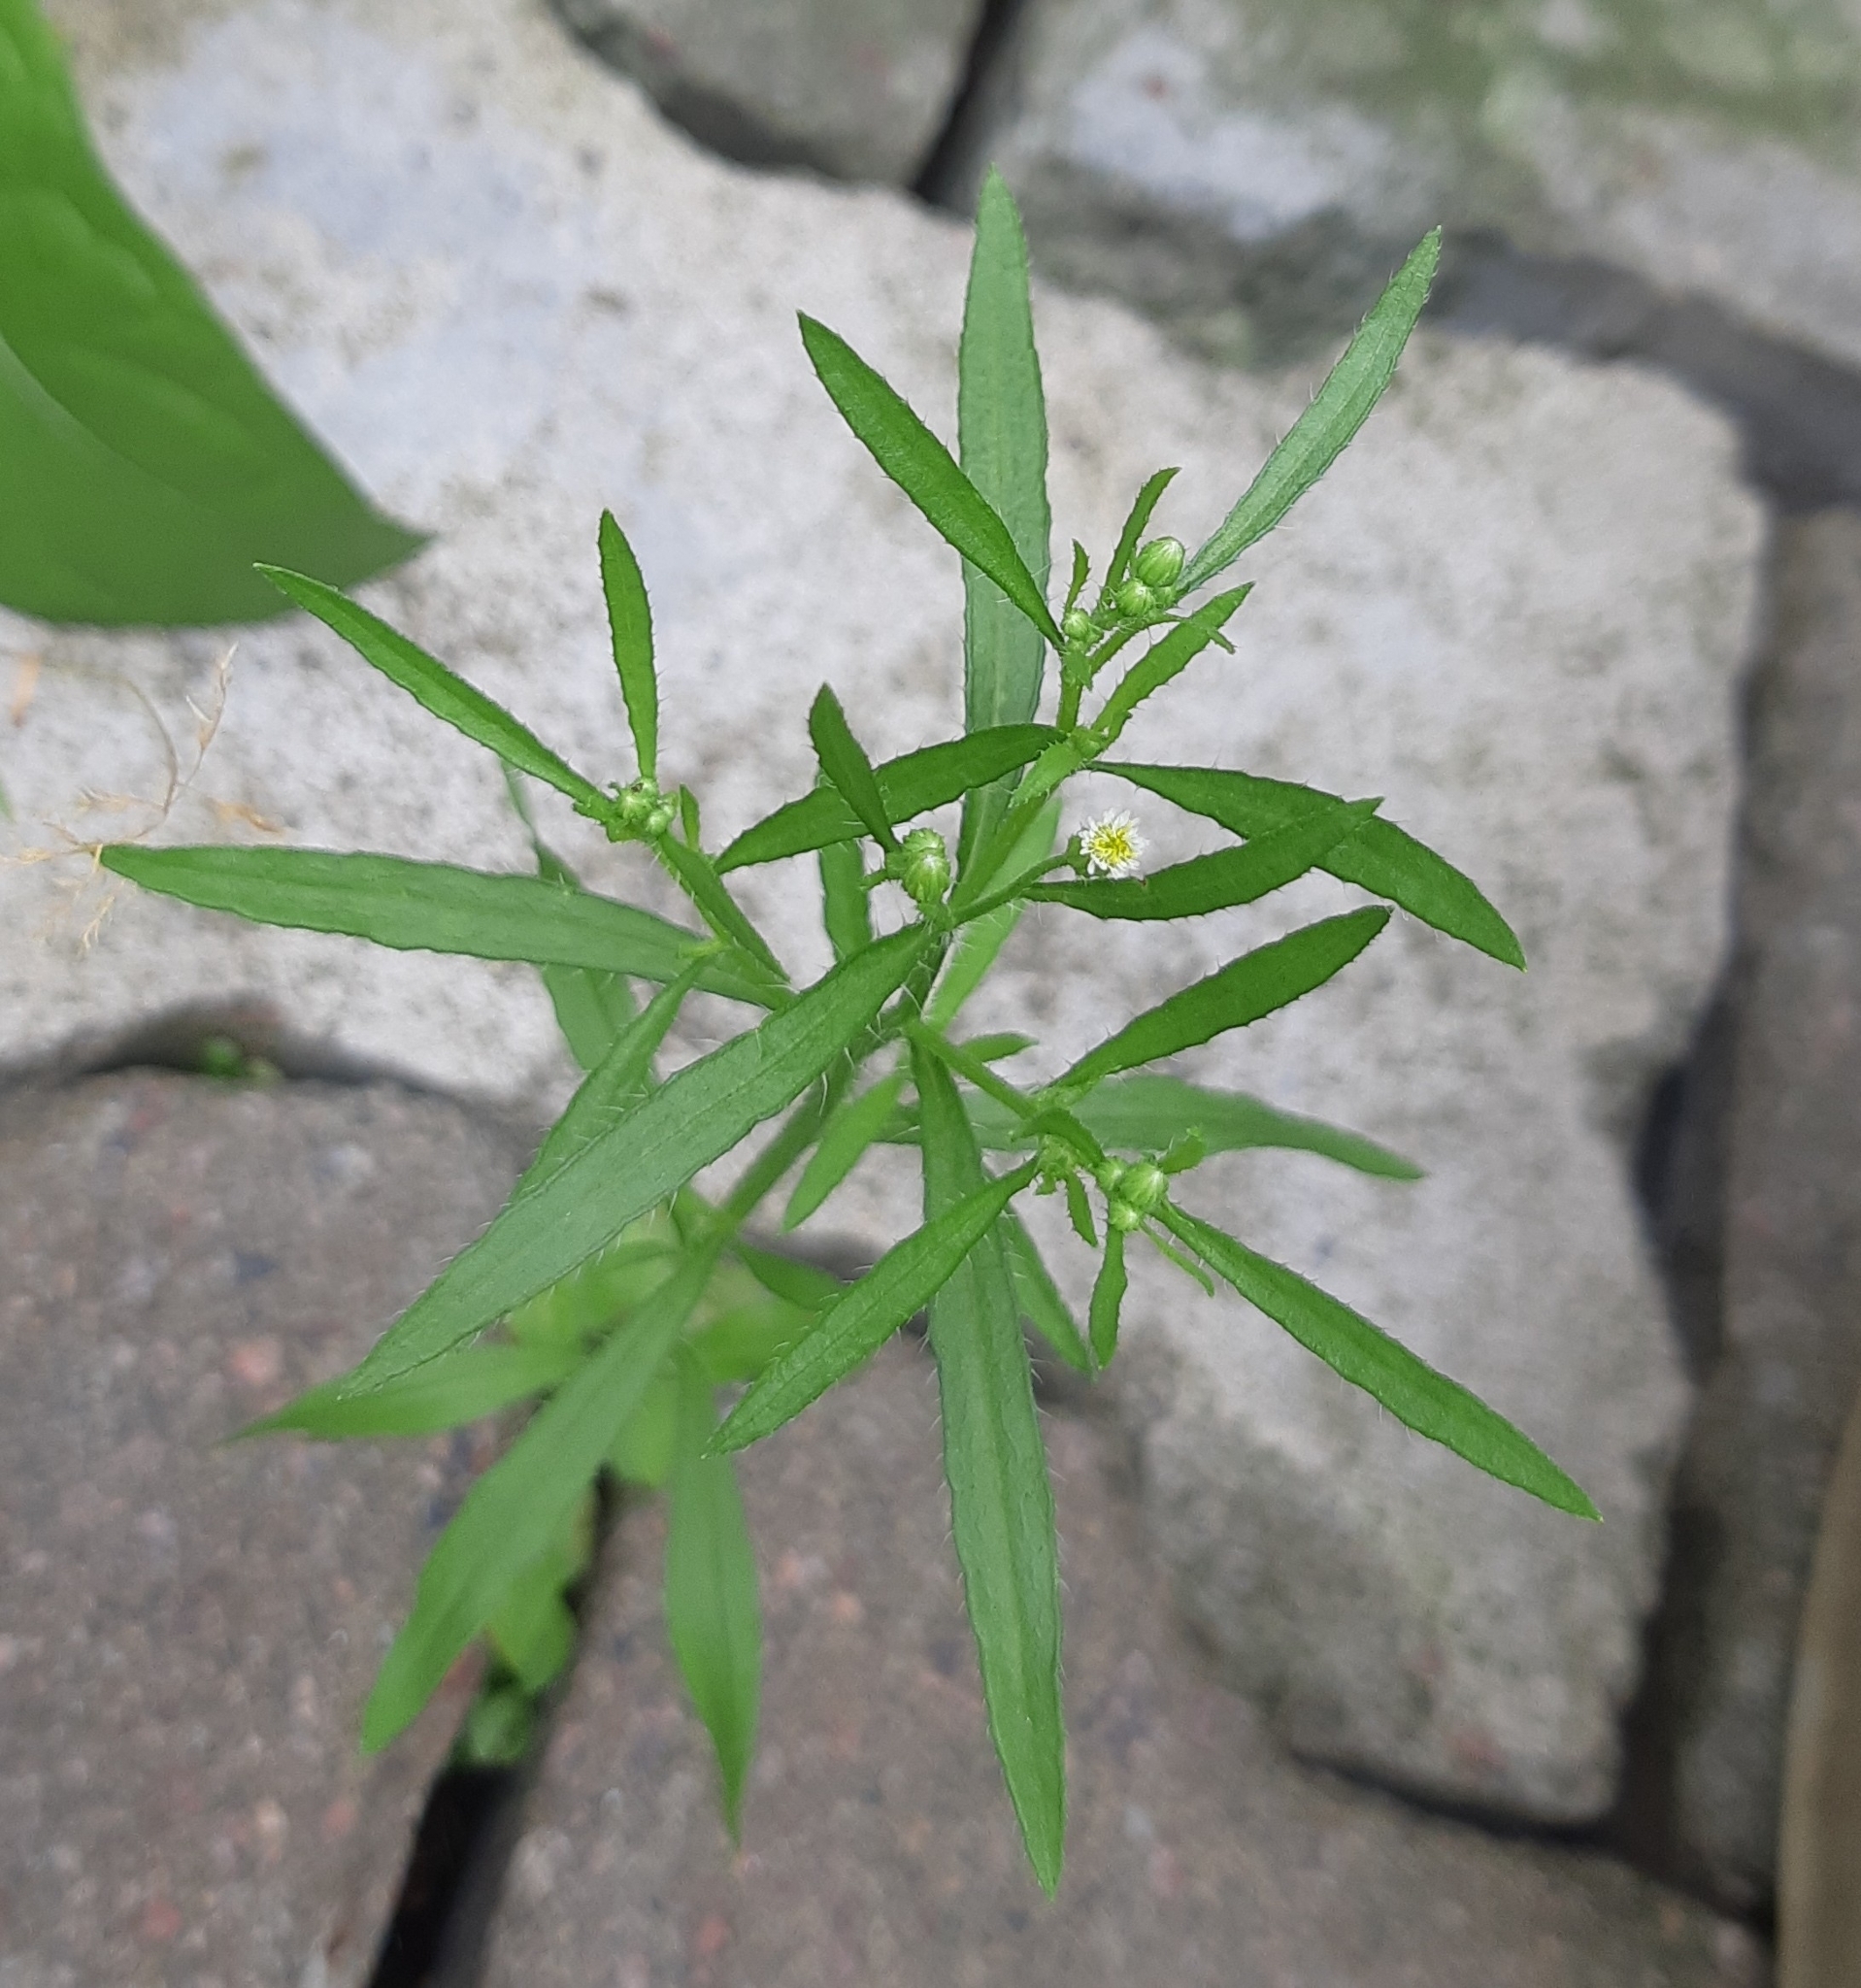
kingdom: Plantae
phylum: Tracheophyta
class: Magnoliopsida
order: Asterales
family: Asteraceae
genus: Erigeron
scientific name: Erigeron canadensis
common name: Canadian fleabane
